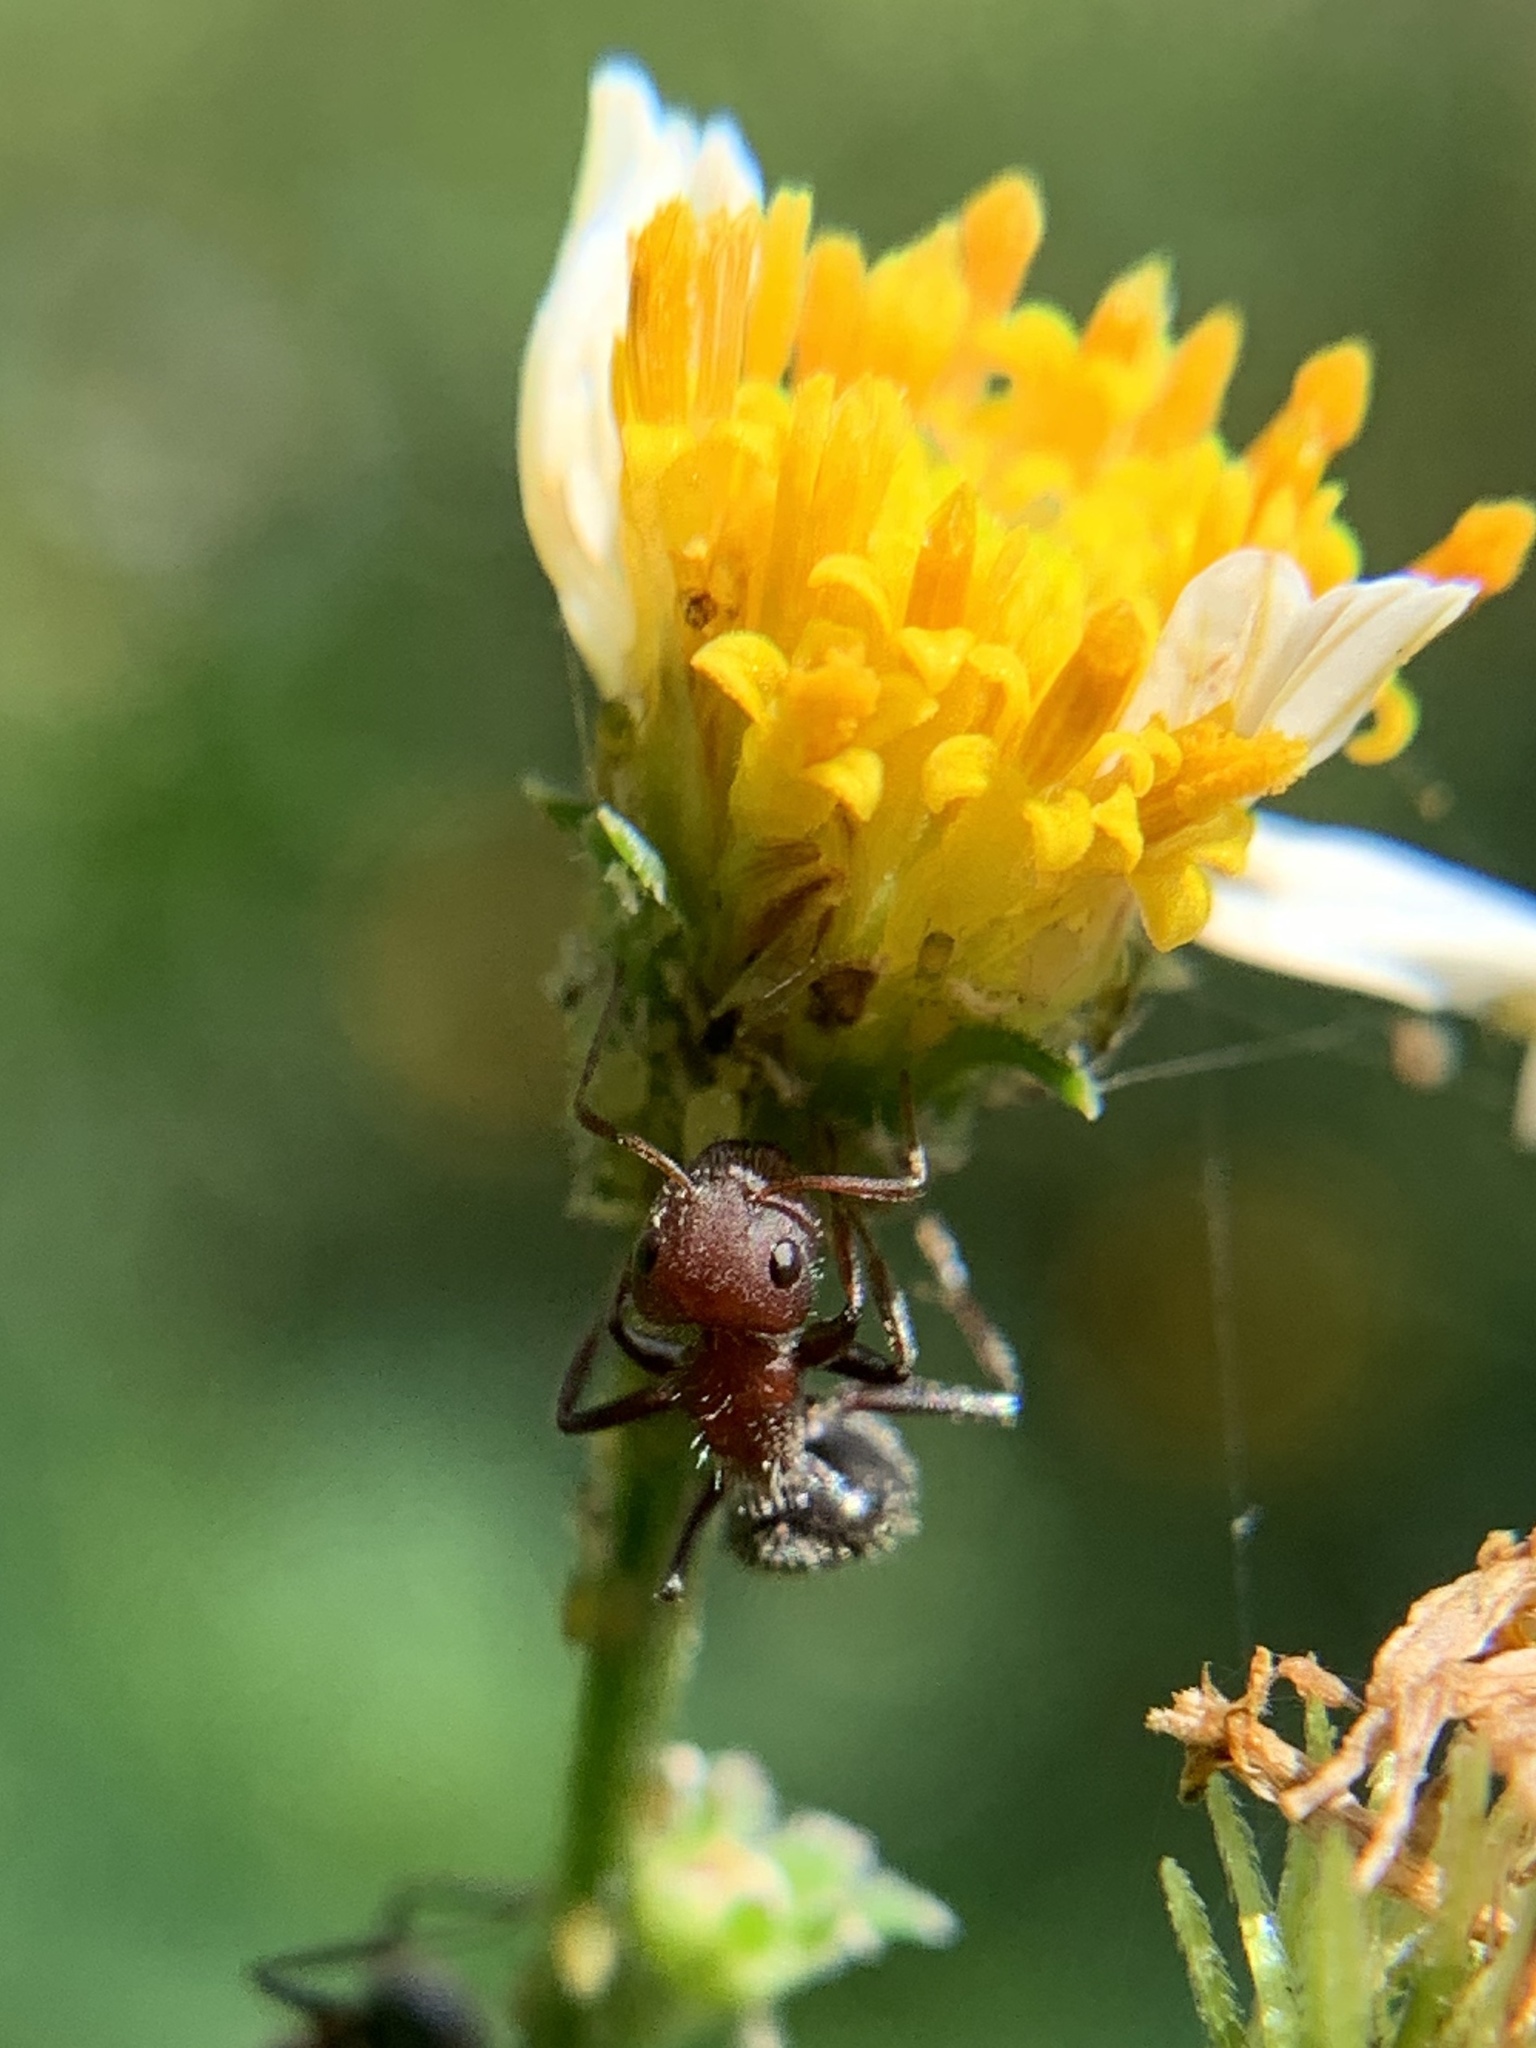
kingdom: Animalia
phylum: Arthropoda
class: Insecta
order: Hymenoptera
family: Formicidae
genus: Camponotus
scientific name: Camponotus planatus
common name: Compact carpenter ant
